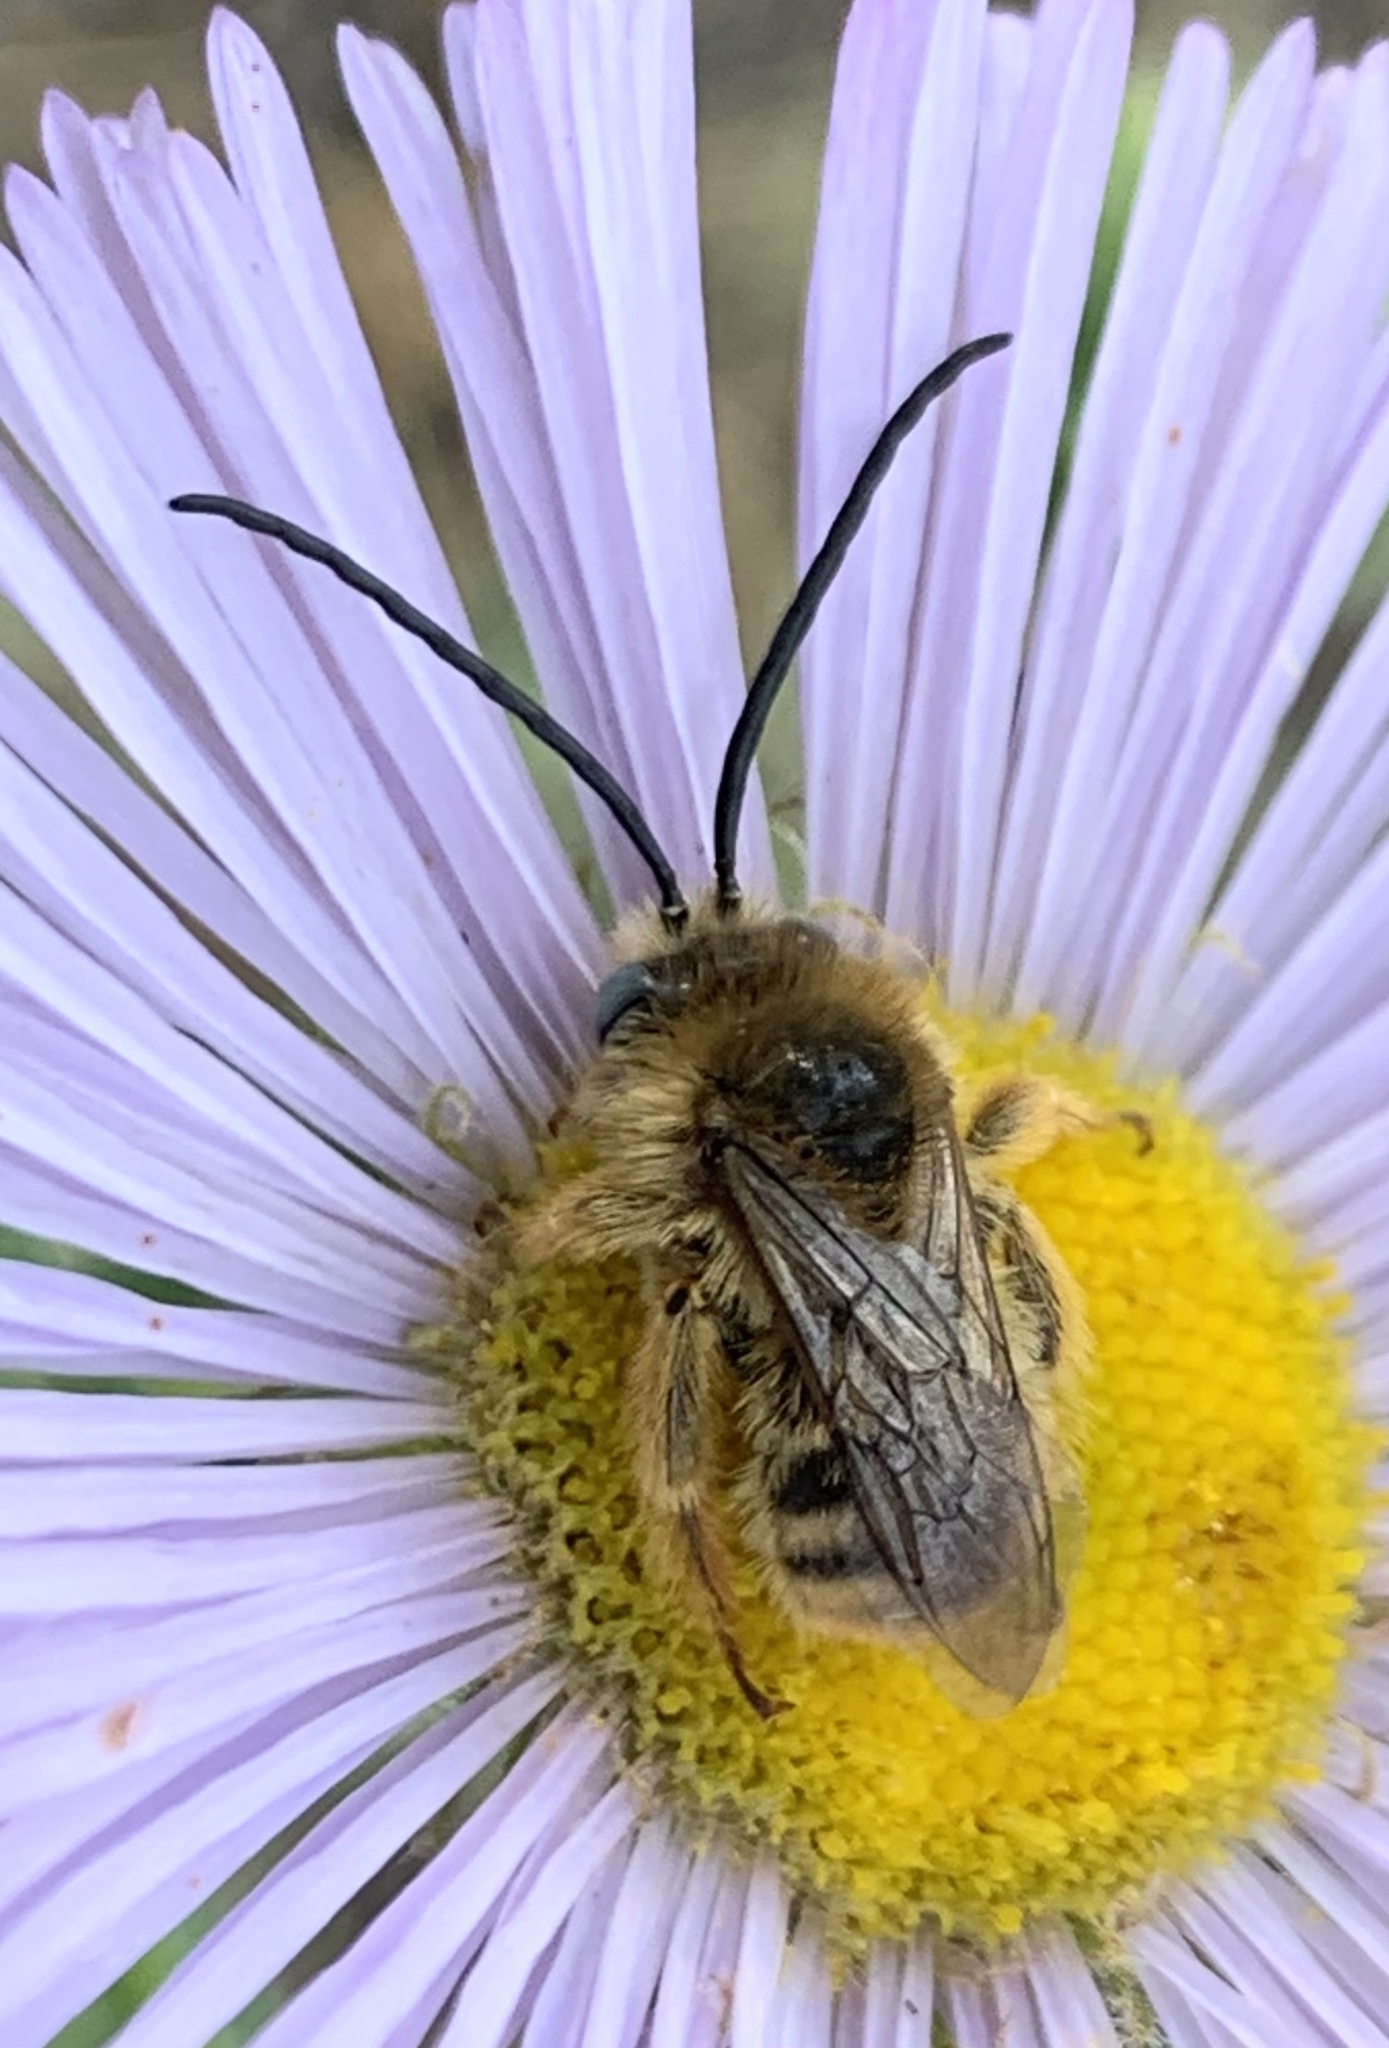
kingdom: Animalia
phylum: Arthropoda
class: Insecta
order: Hymenoptera
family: Apidae
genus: Melissodes
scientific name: Melissodes
